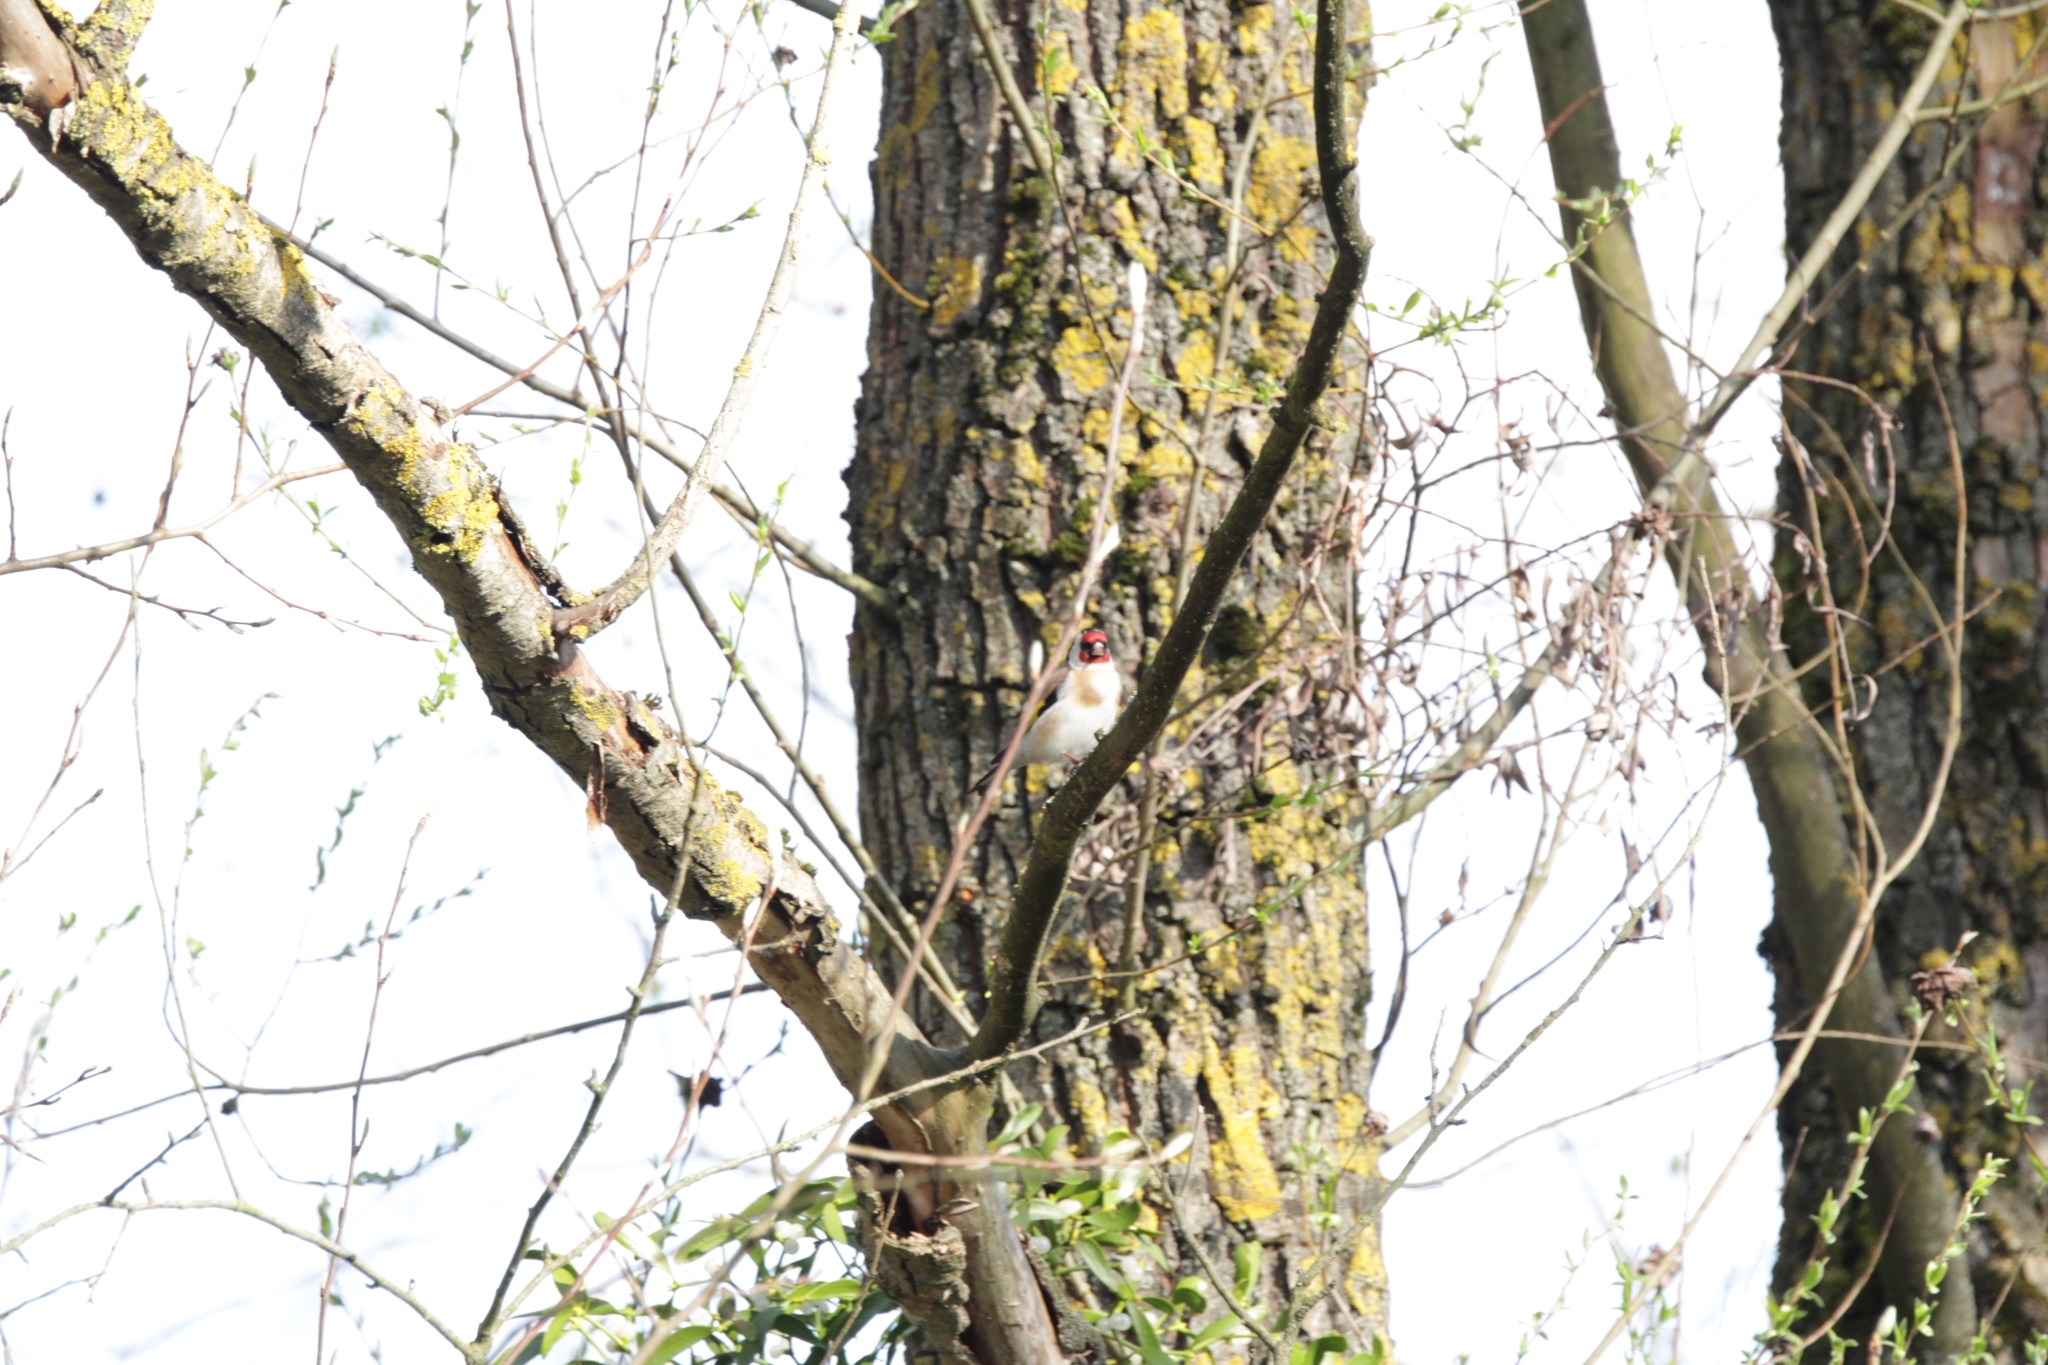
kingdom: Animalia
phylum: Chordata
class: Aves
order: Passeriformes
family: Fringillidae
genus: Carduelis
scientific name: Carduelis carduelis
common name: European goldfinch
